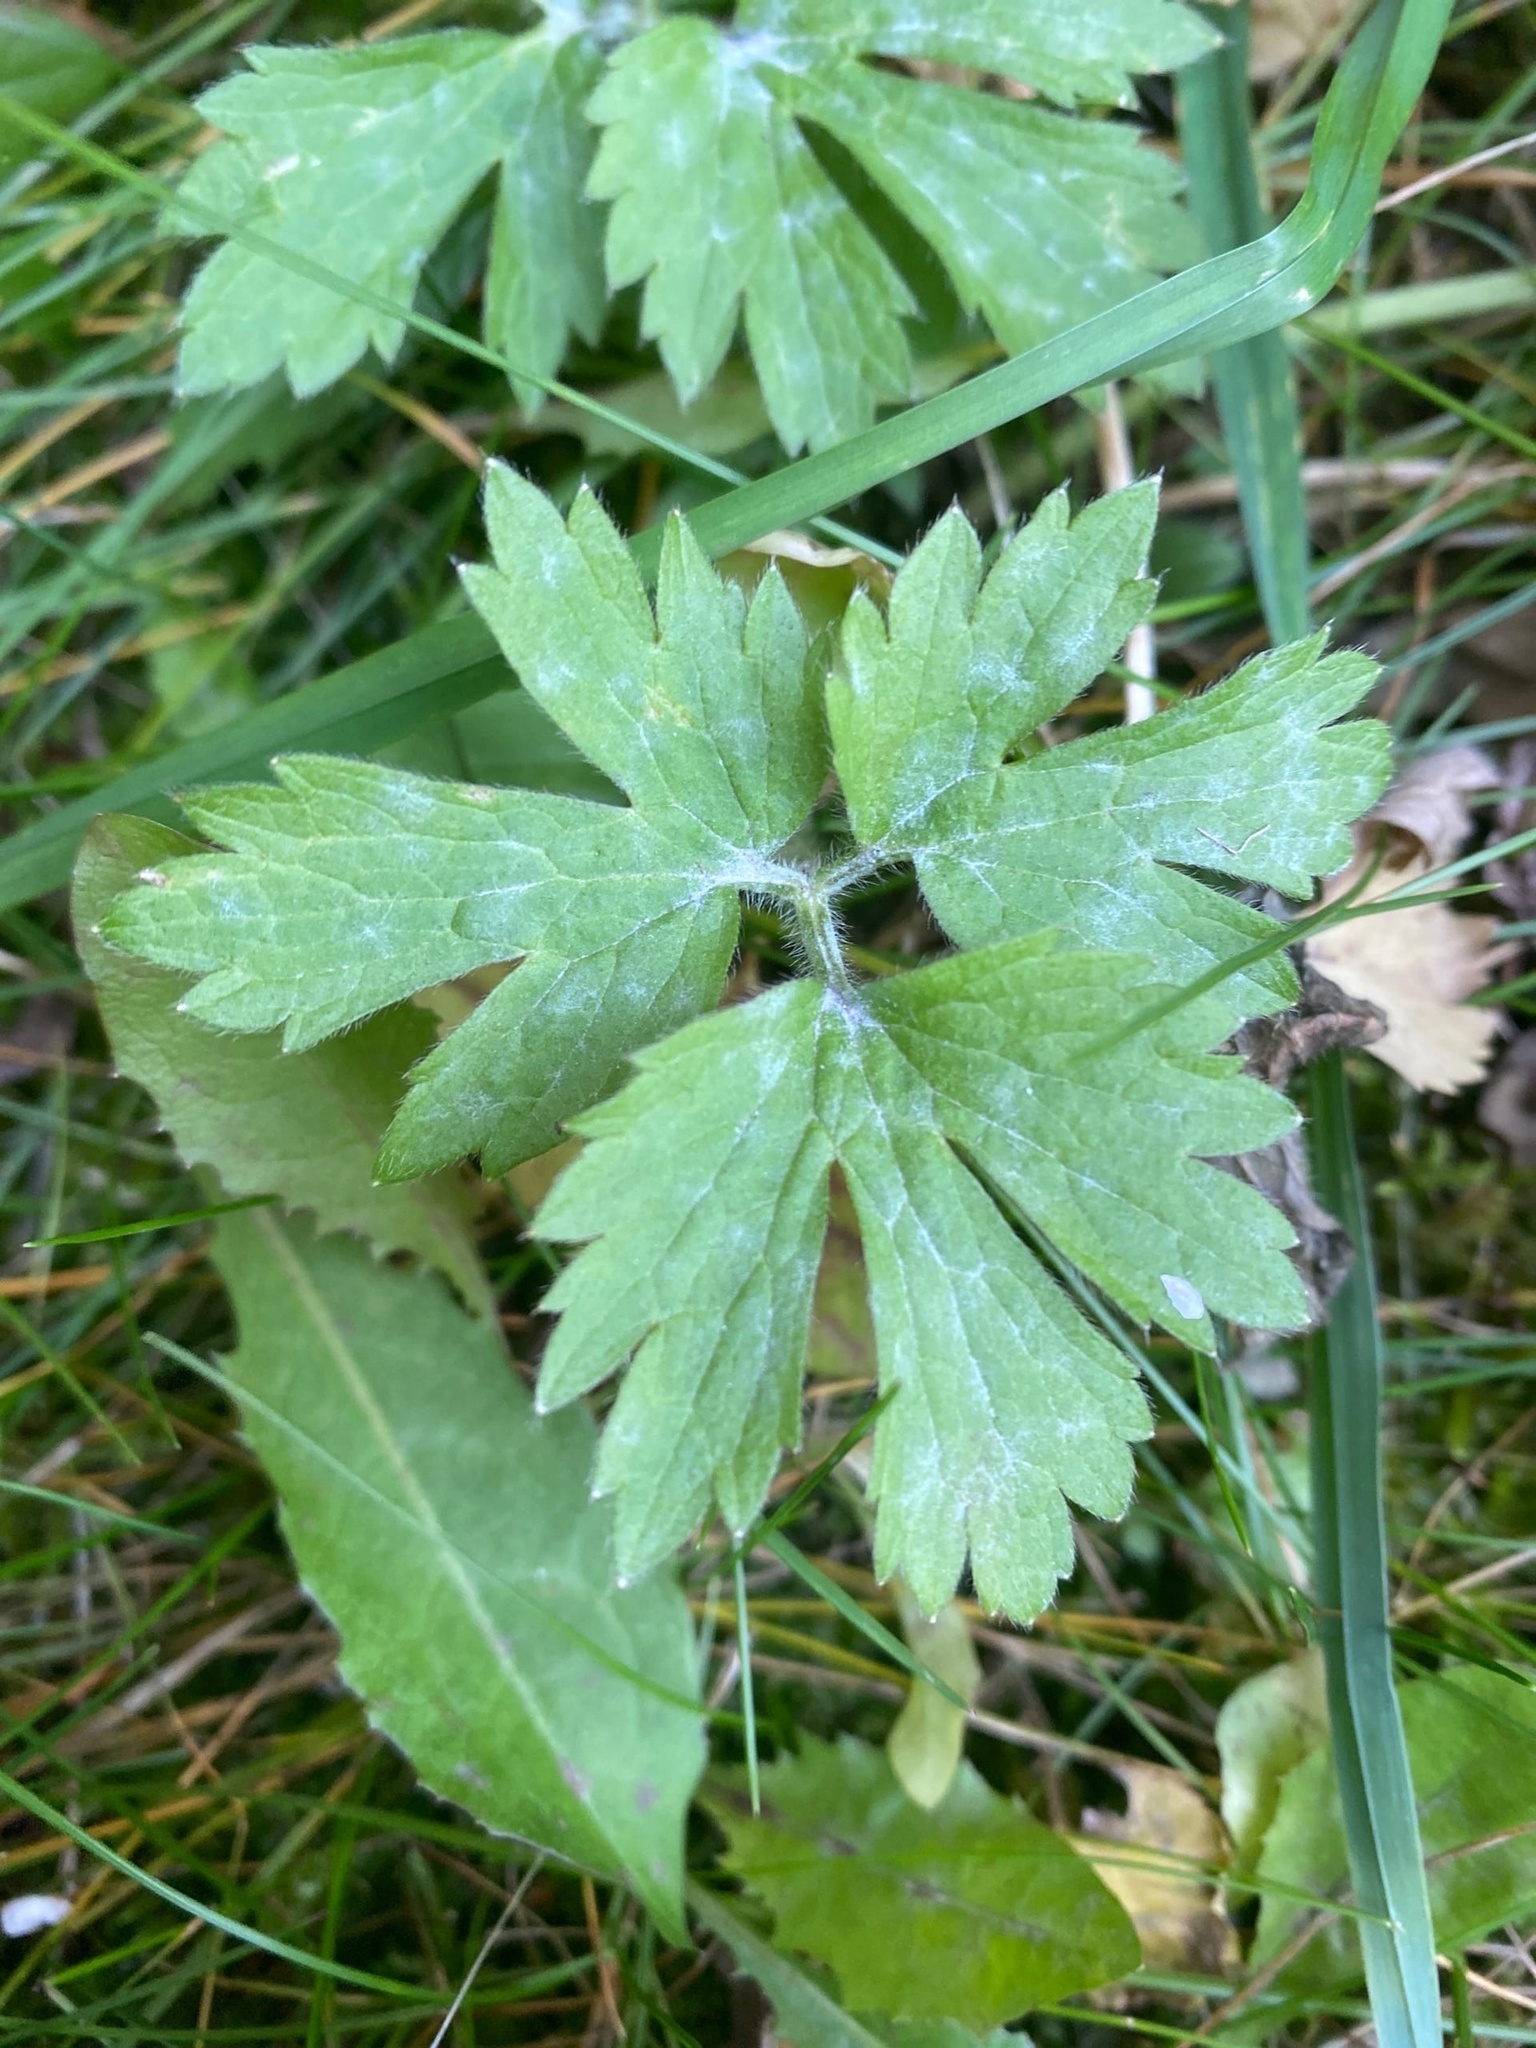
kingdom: Plantae
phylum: Tracheophyta
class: Magnoliopsida
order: Ranunculales
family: Ranunculaceae
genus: Ranunculus
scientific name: Ranunculus repens
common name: Creeping buttercup
